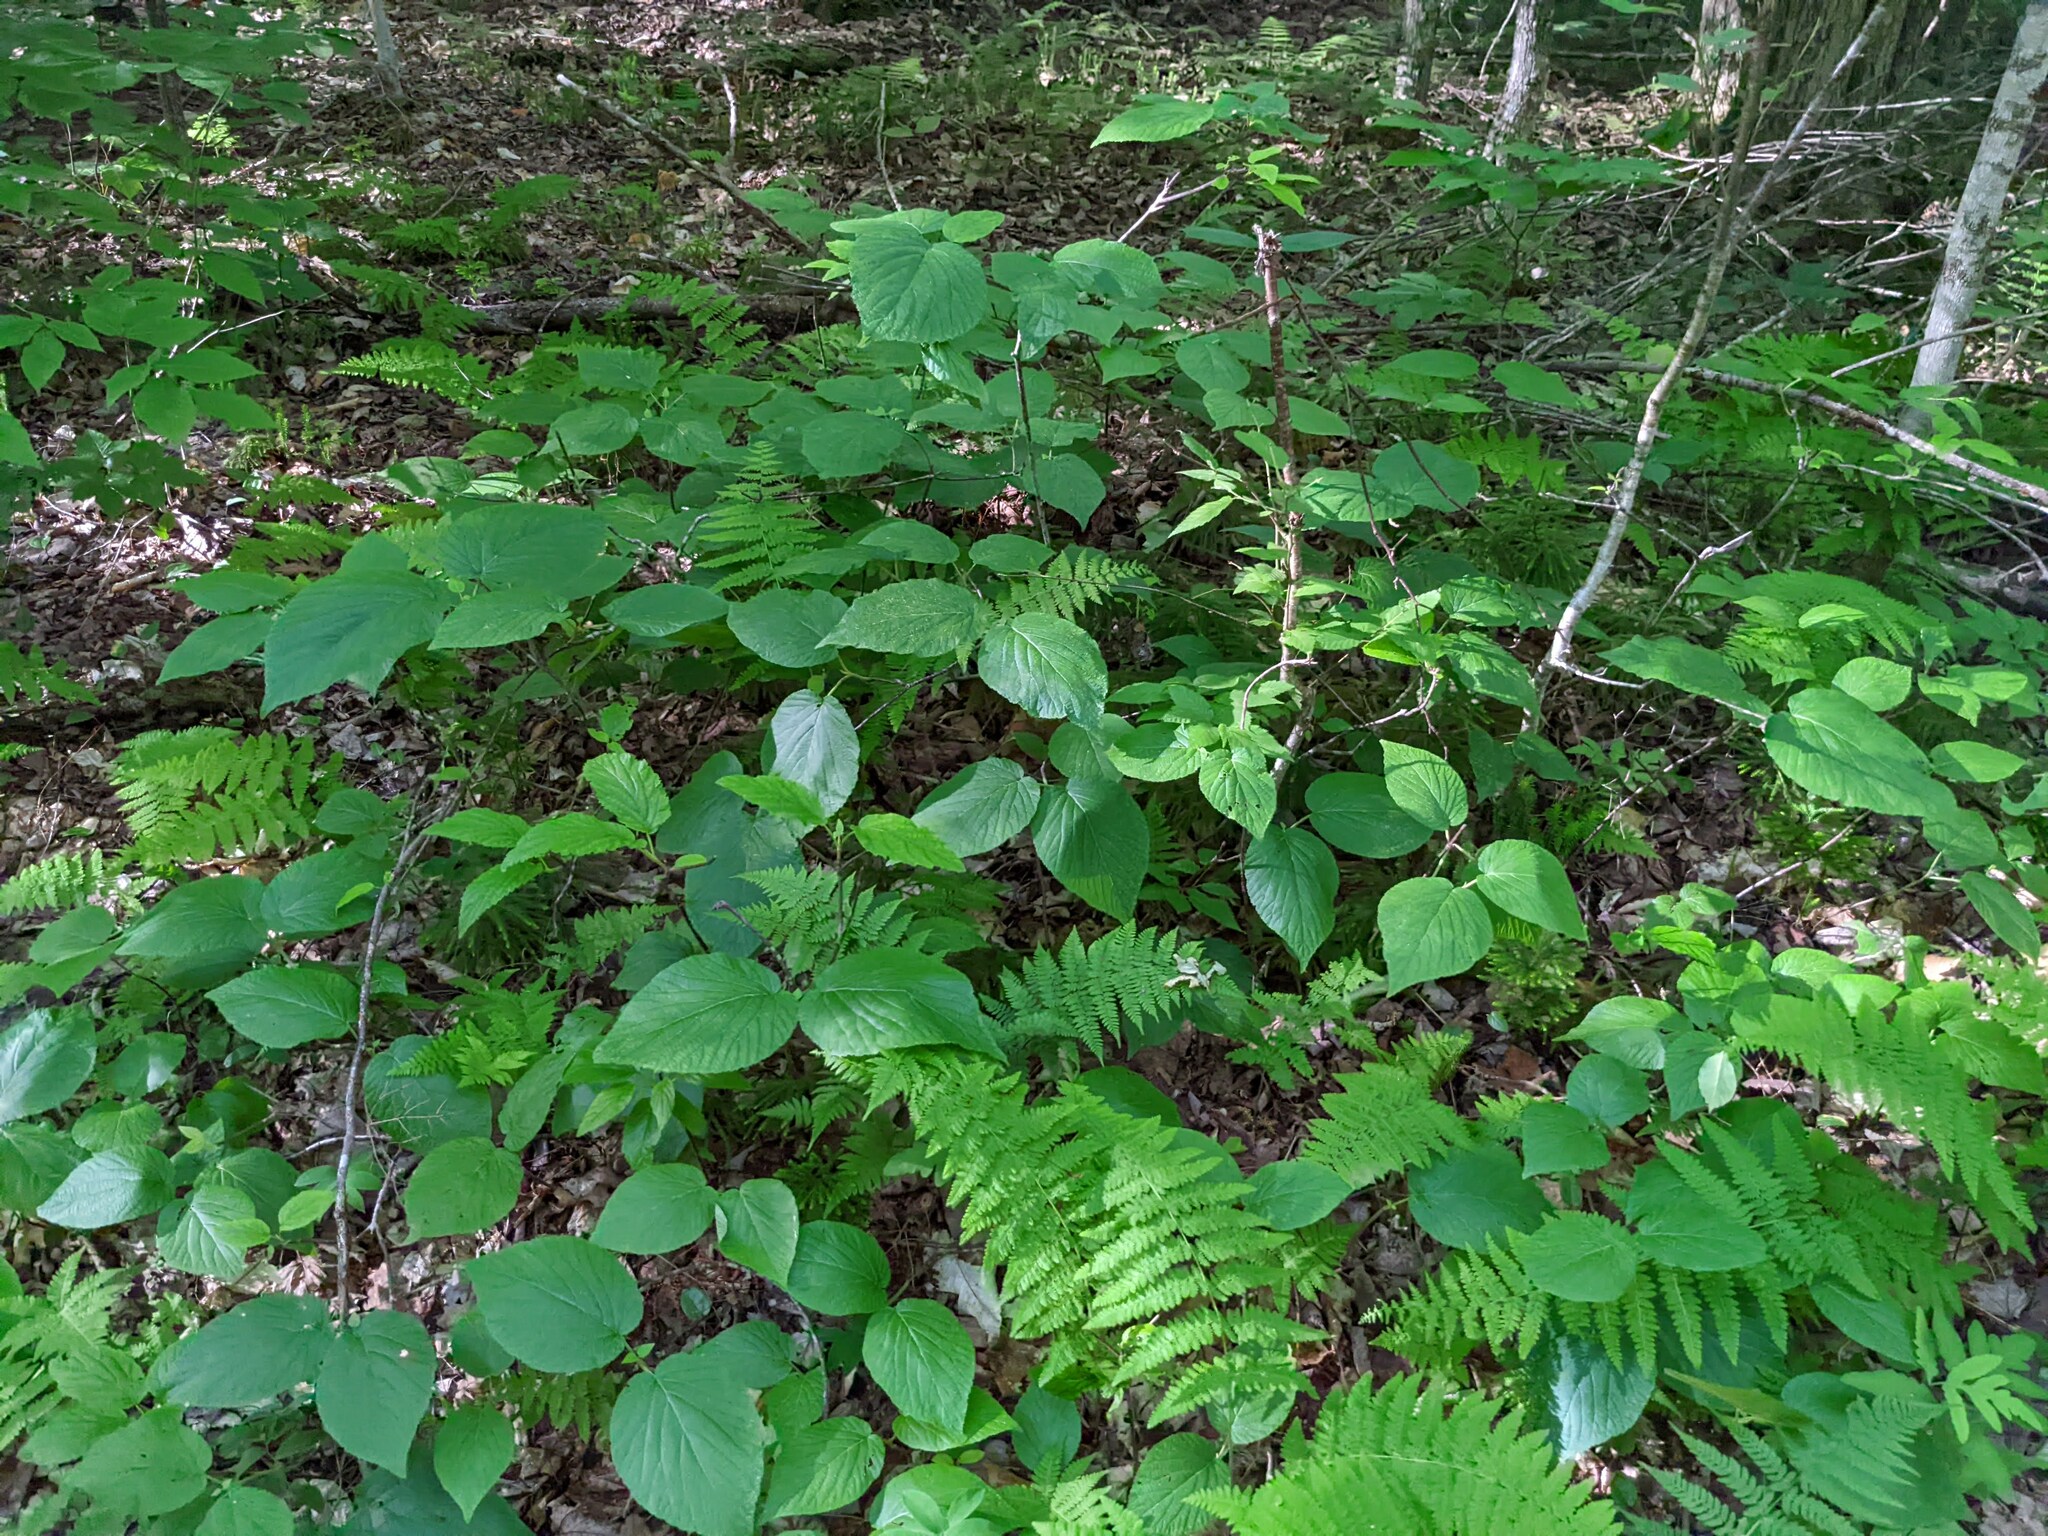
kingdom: Plantae
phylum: Tracheophyta
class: Magnoliopsida
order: Dipsacales
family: Viburnaceae
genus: Viburnum
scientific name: Viburnum lantanoides
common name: Hobblebush
